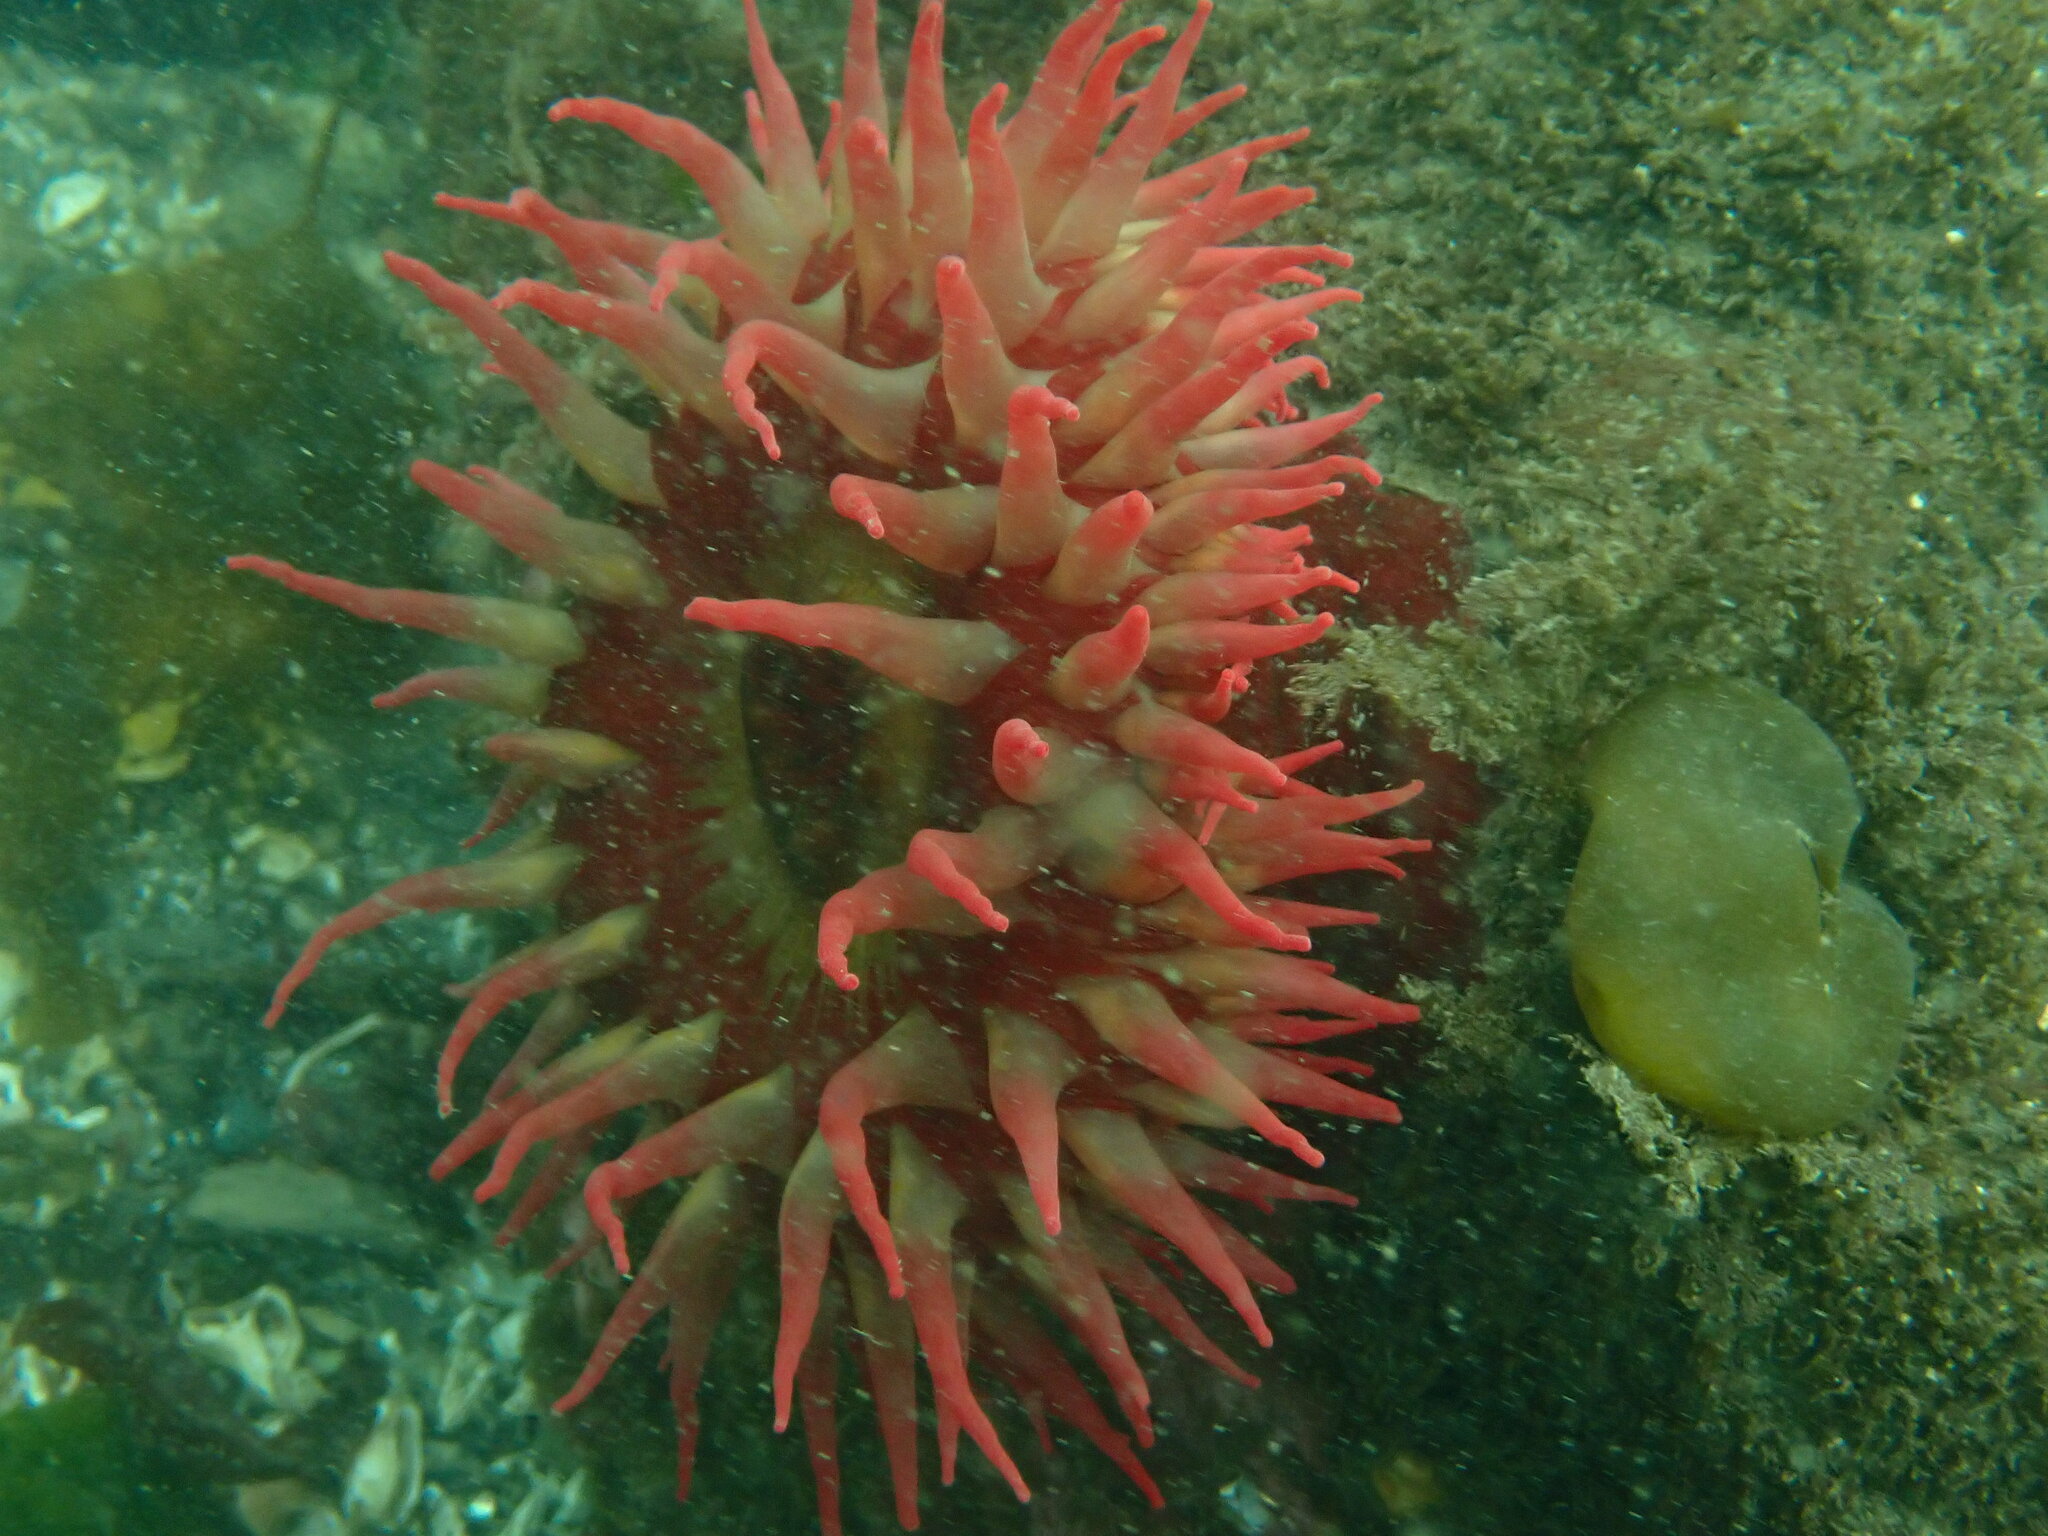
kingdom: Animalia
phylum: Cnidaria
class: Anthozoa
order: Actiniaria
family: Actiniidae
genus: Urticina
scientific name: Urticina piscivora
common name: Velvety red anemone
